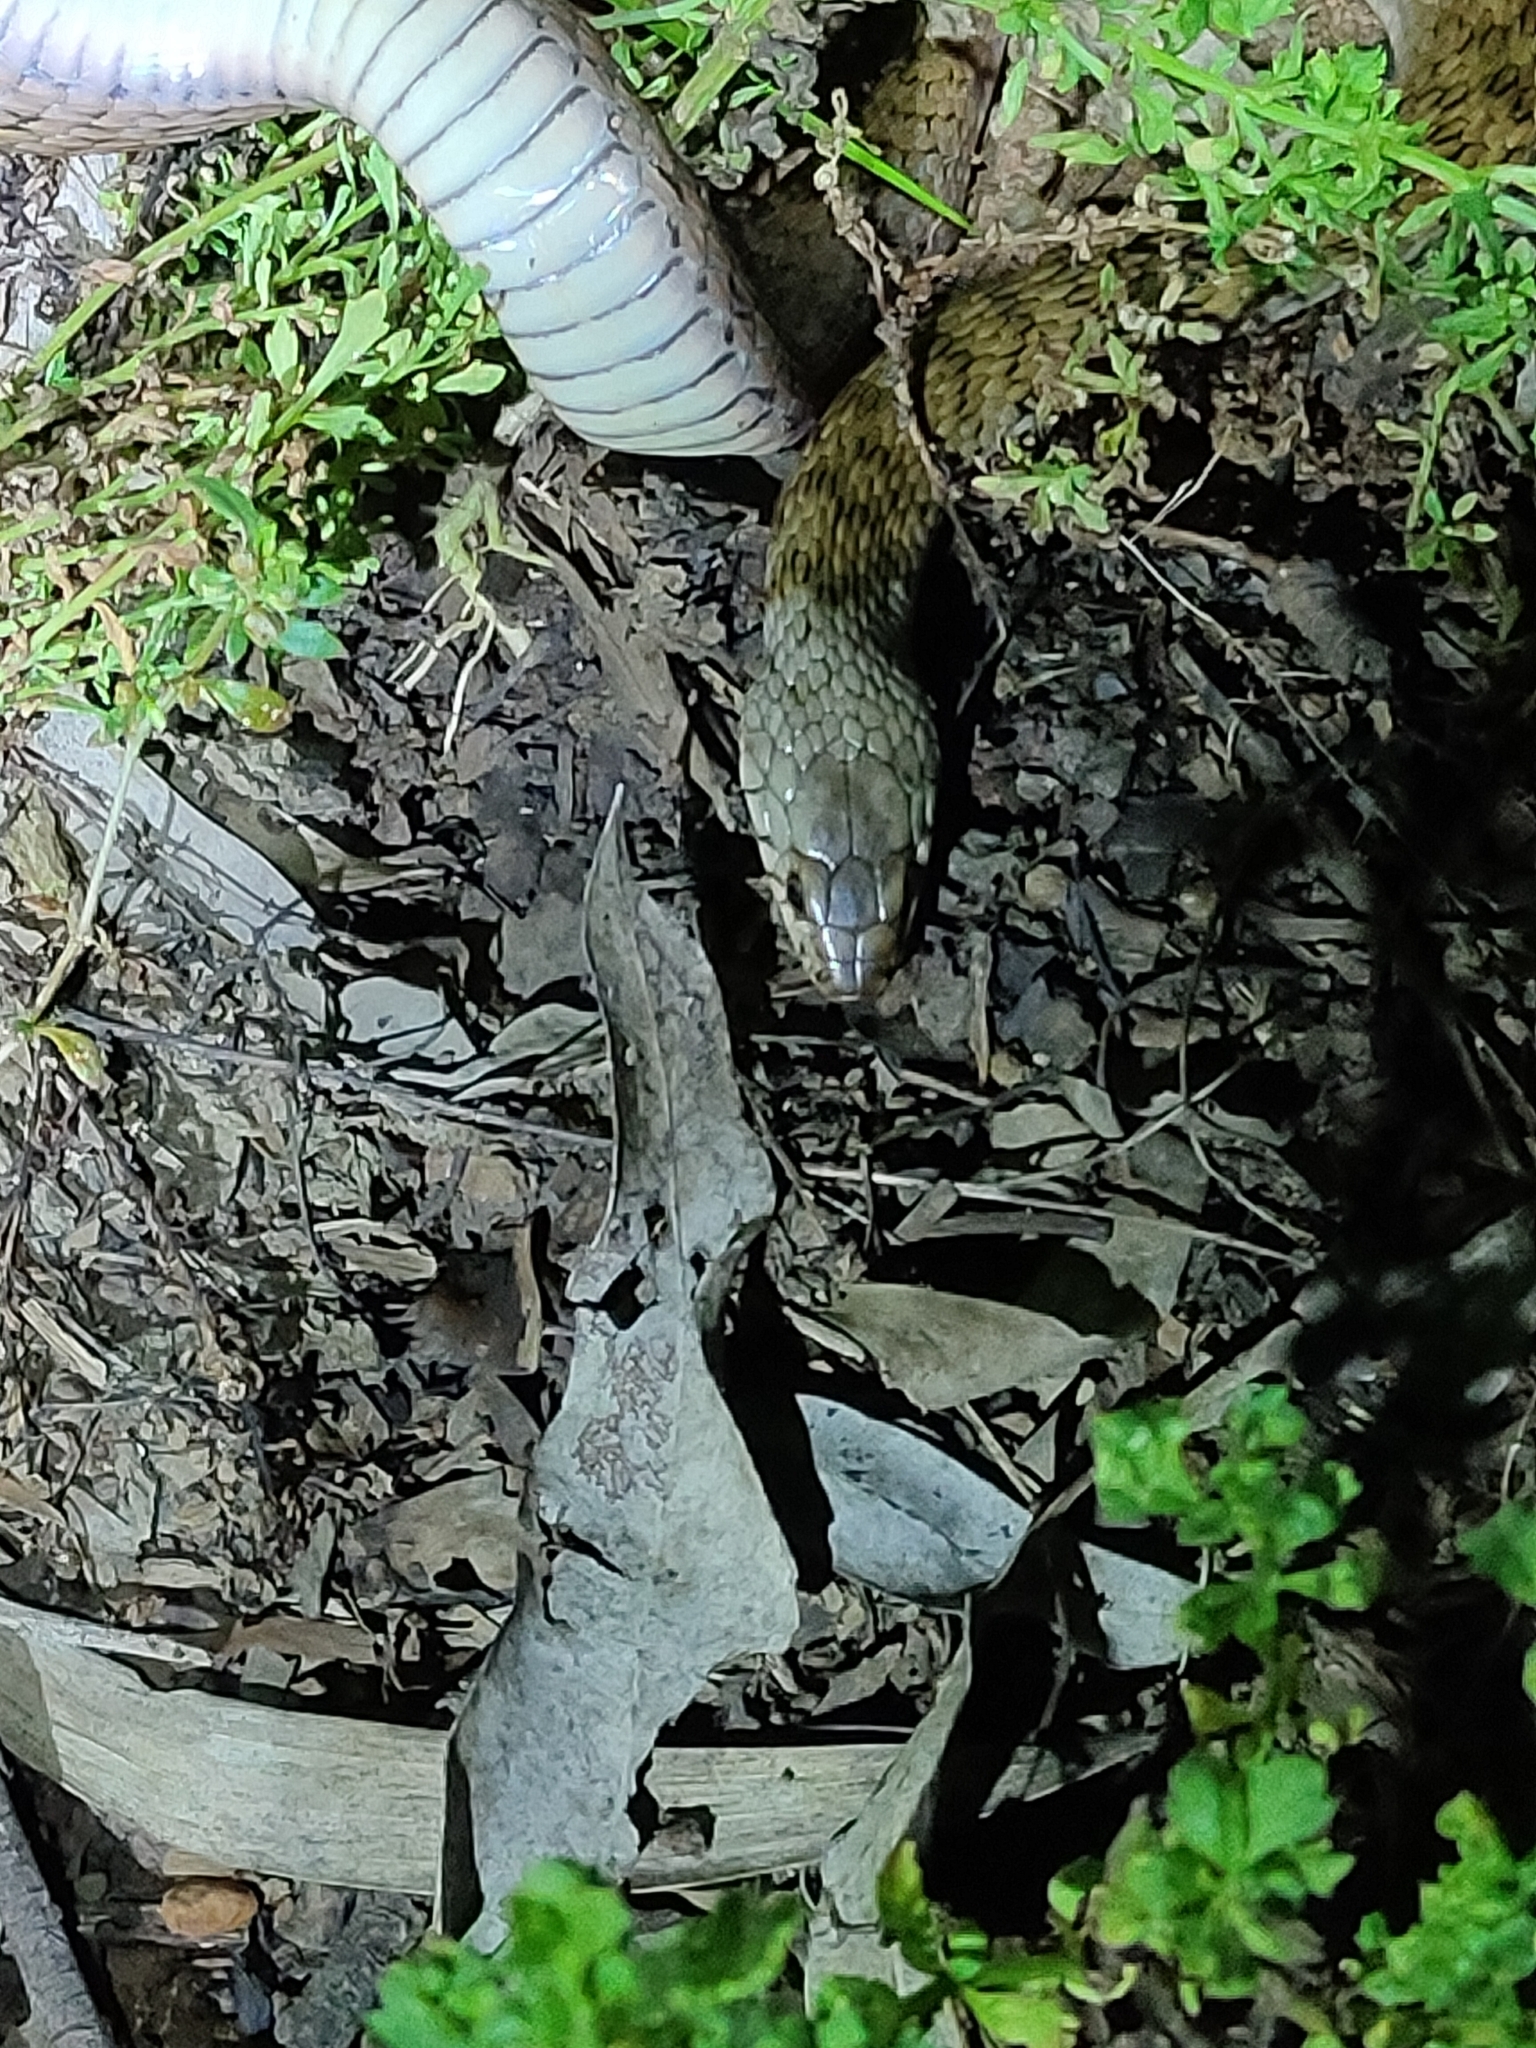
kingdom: Animalia
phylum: Chordata
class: Squamata
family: Colubridae
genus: Tropidonophis
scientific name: Tropidonophis mairii
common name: Common keelback
